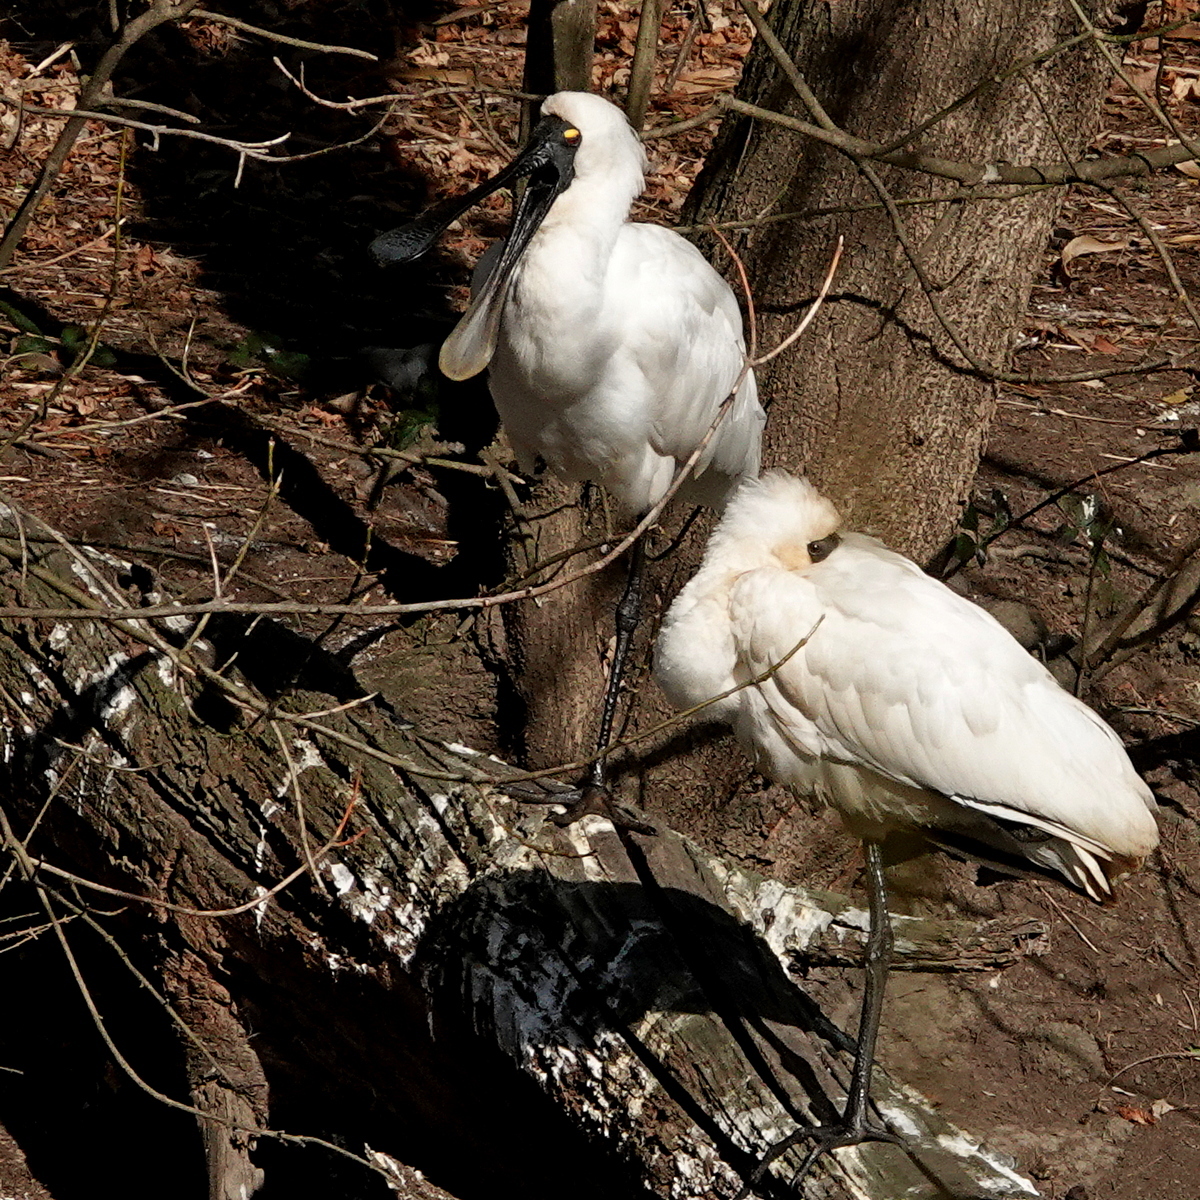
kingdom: Animalia
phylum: Chordata
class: Aves
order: Pelecaniformes
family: Threskiornithidae
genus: Platalea
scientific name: Platalea regia
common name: Royal spoonbill
